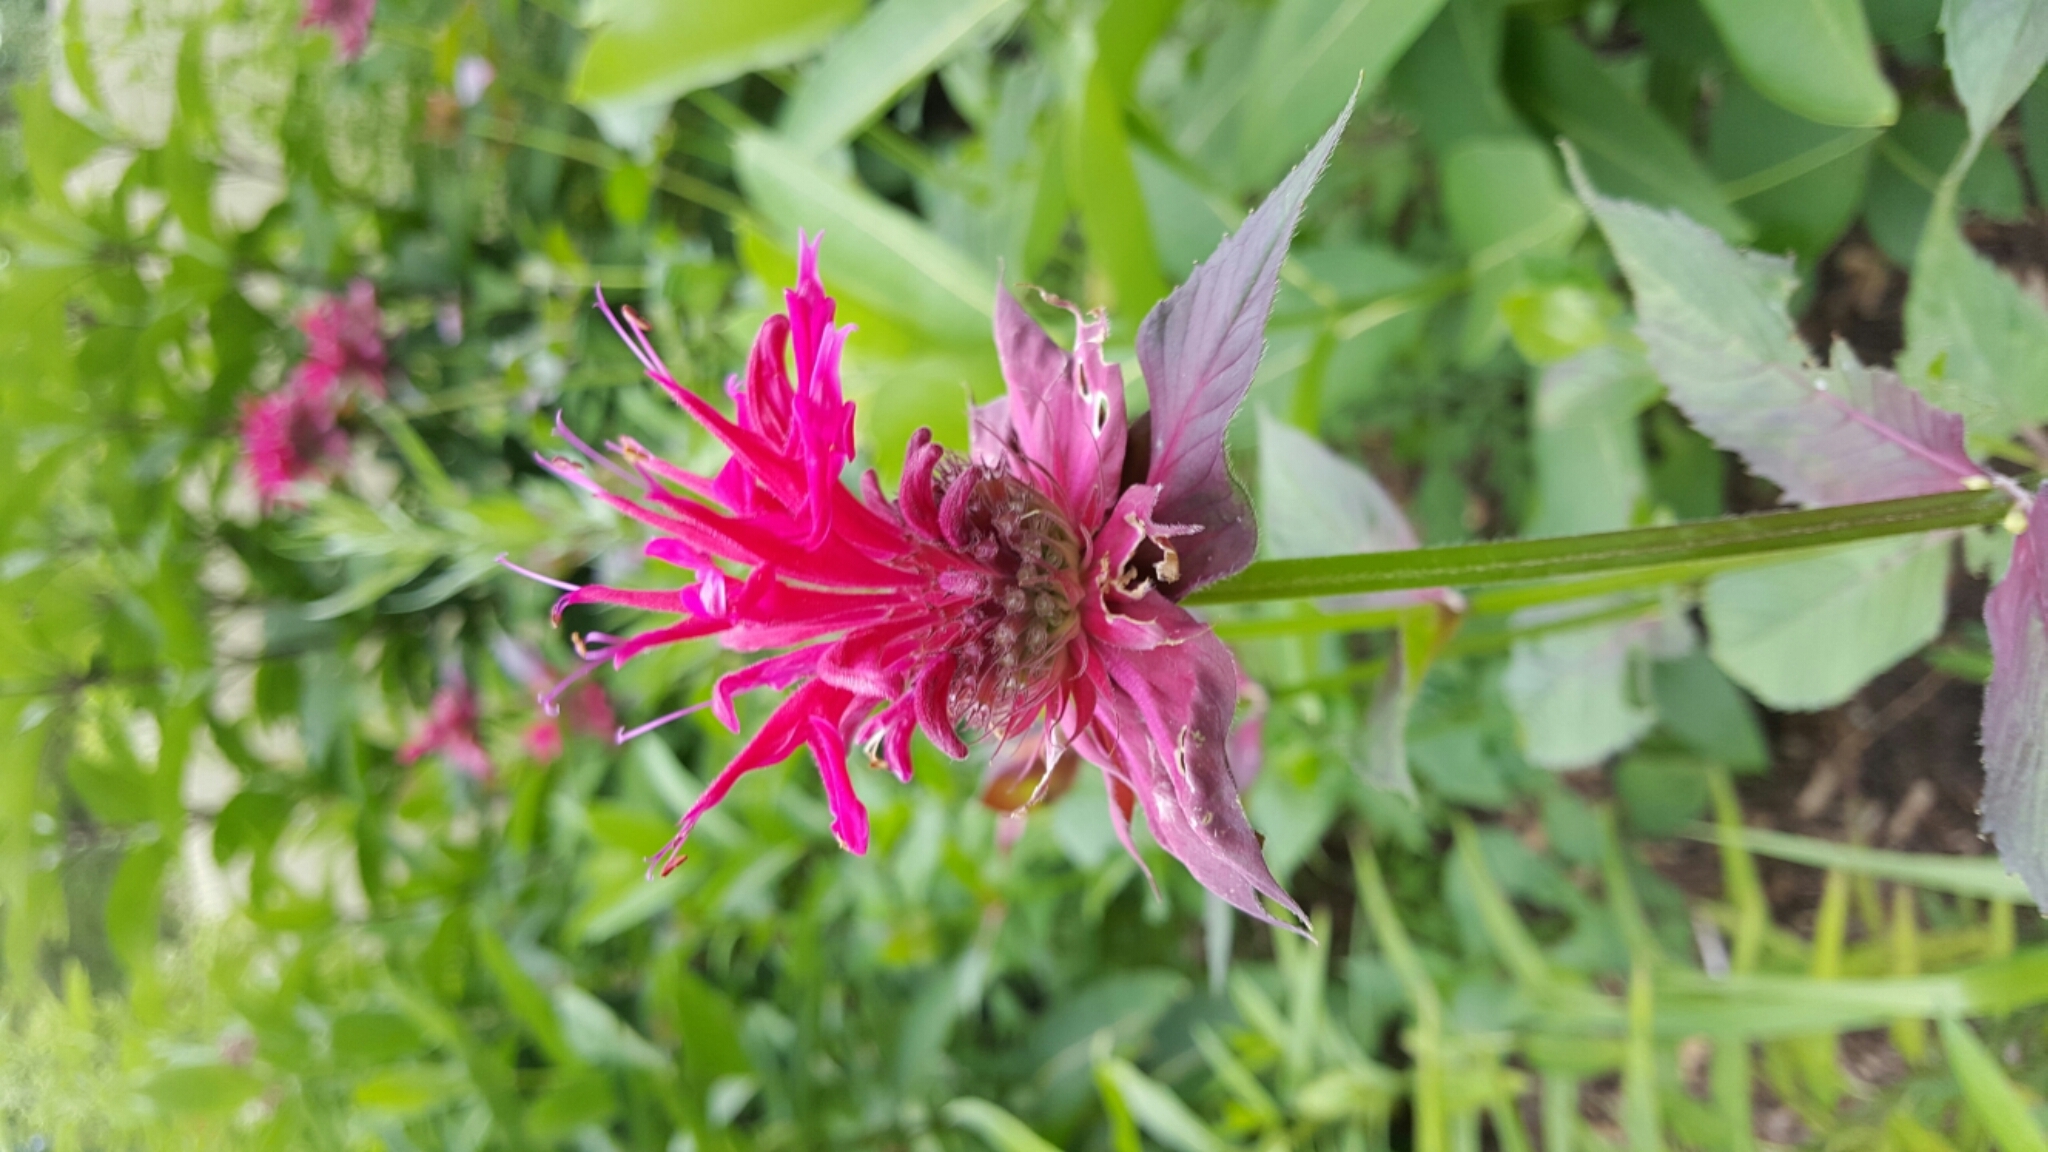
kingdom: Plantae
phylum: Tracheophyta
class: Magnoliopsida
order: Lamiales
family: Lamiaceae
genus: Monarda
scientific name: Monarda
